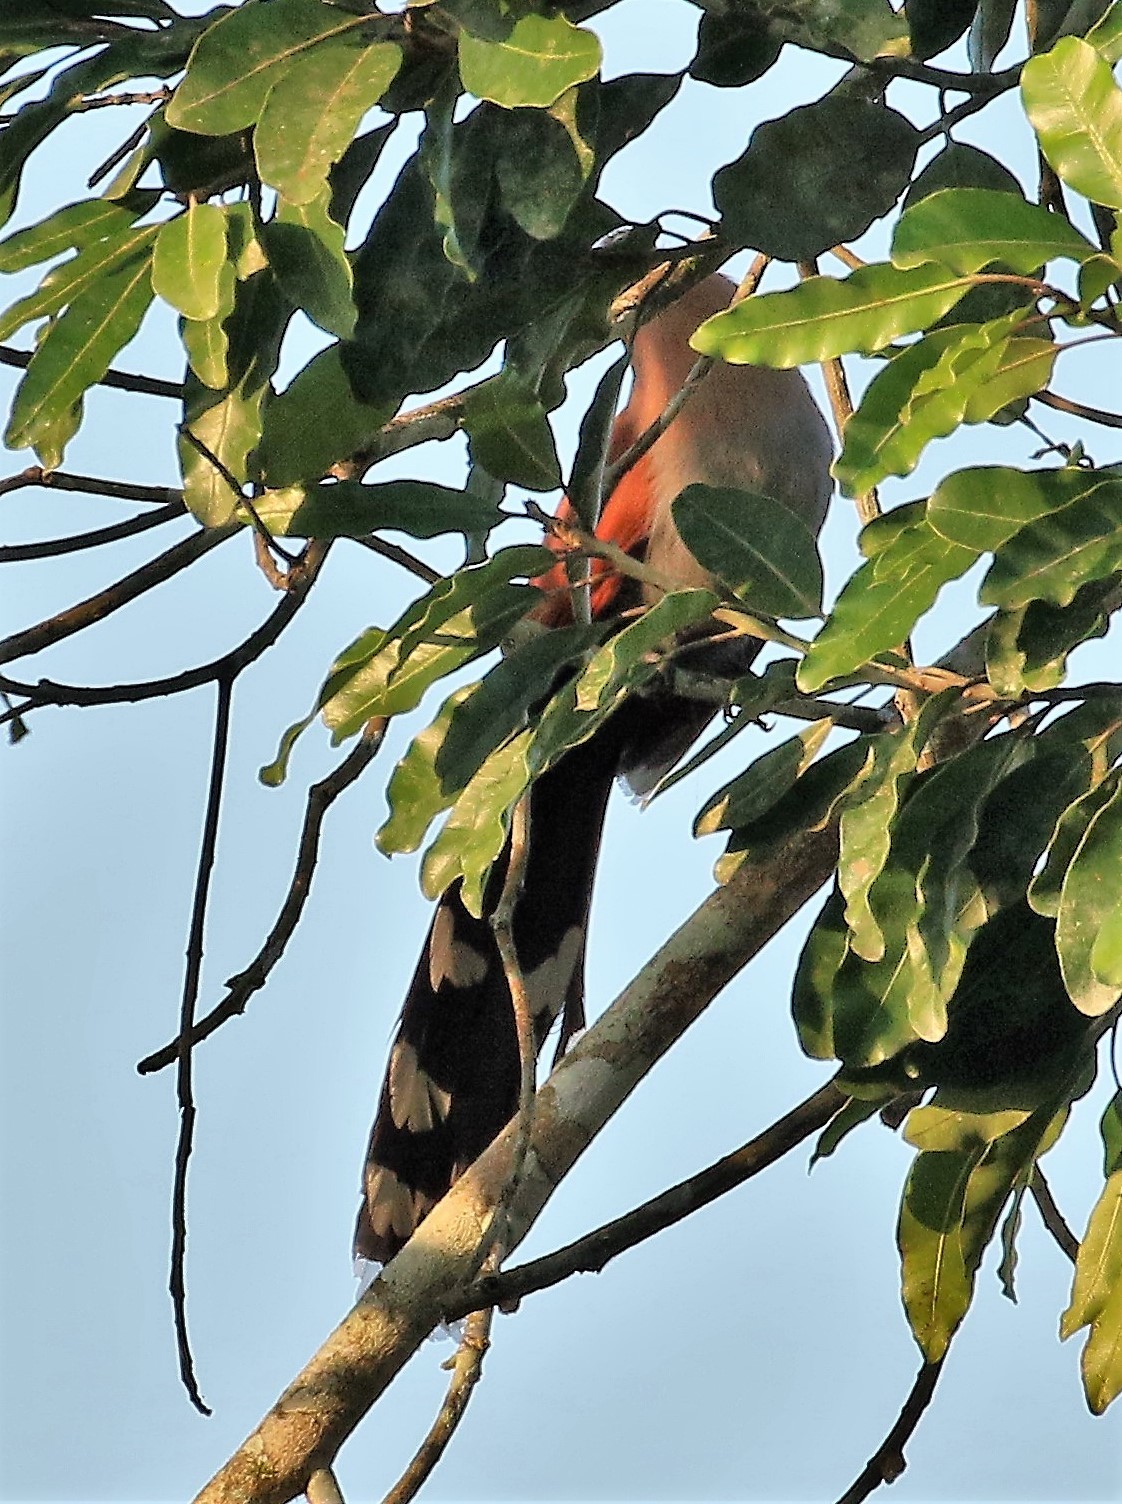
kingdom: Animalia
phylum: Chordata
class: Aves
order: Cuculiformes
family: Cuculidae
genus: Piaya
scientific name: Piaya cayana
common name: Squirrel cuckoo
